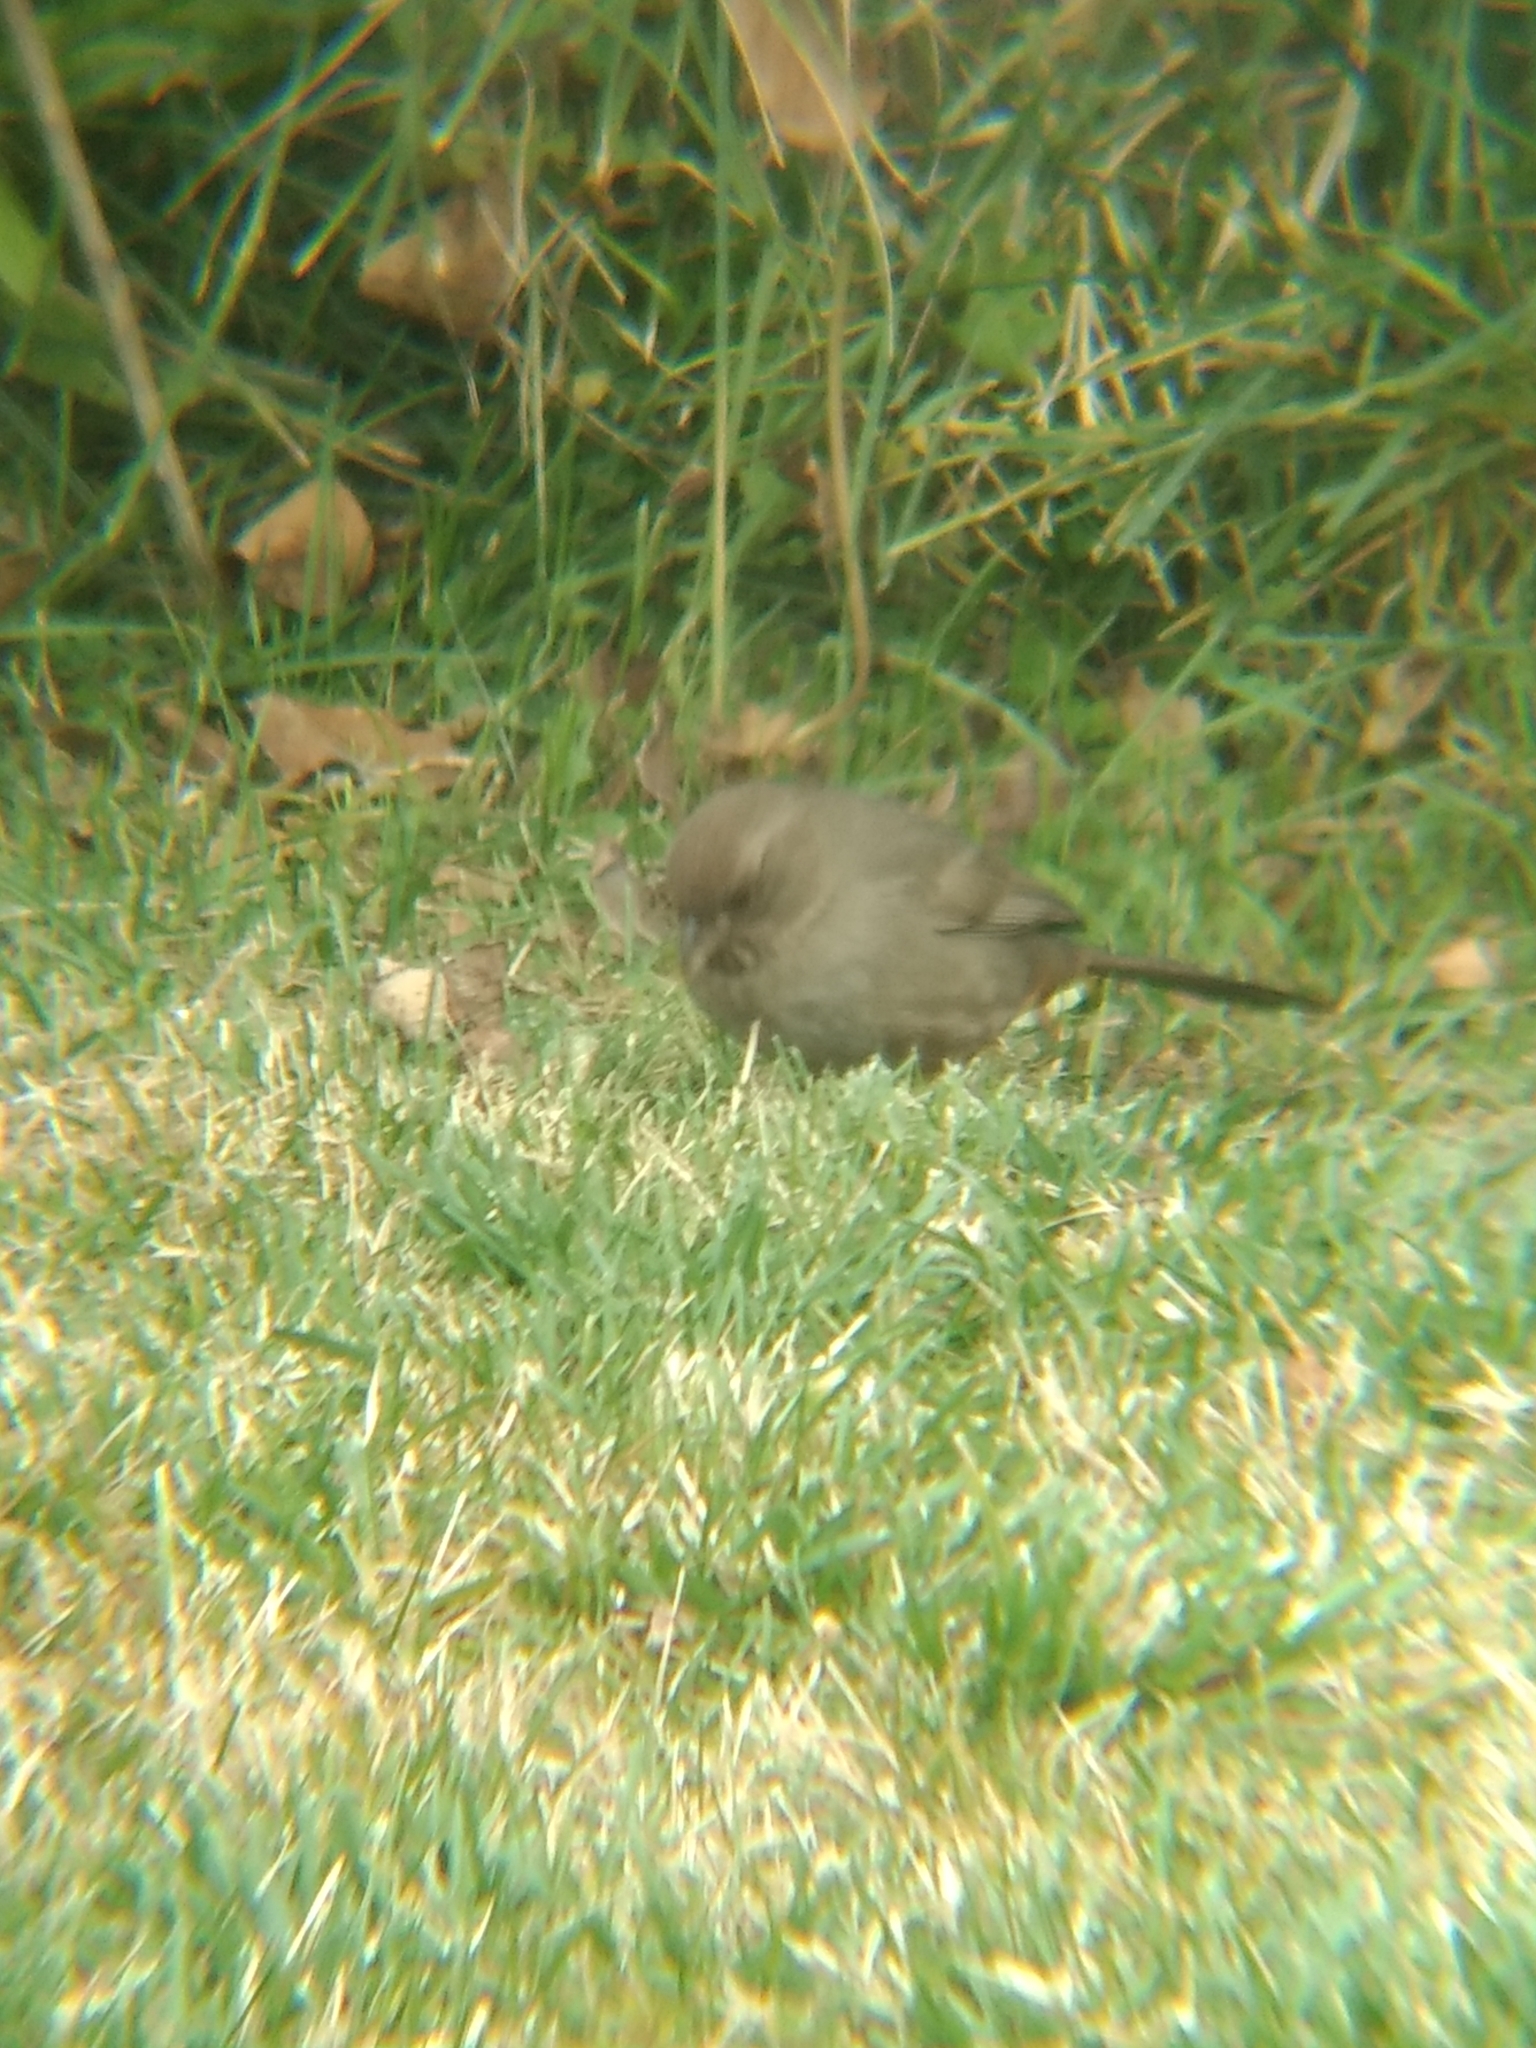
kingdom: Animalia
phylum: Chordata
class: Aves
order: Passeriformes
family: Passerellidae
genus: Melozone
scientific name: Melozone crissalis
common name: California towhee
